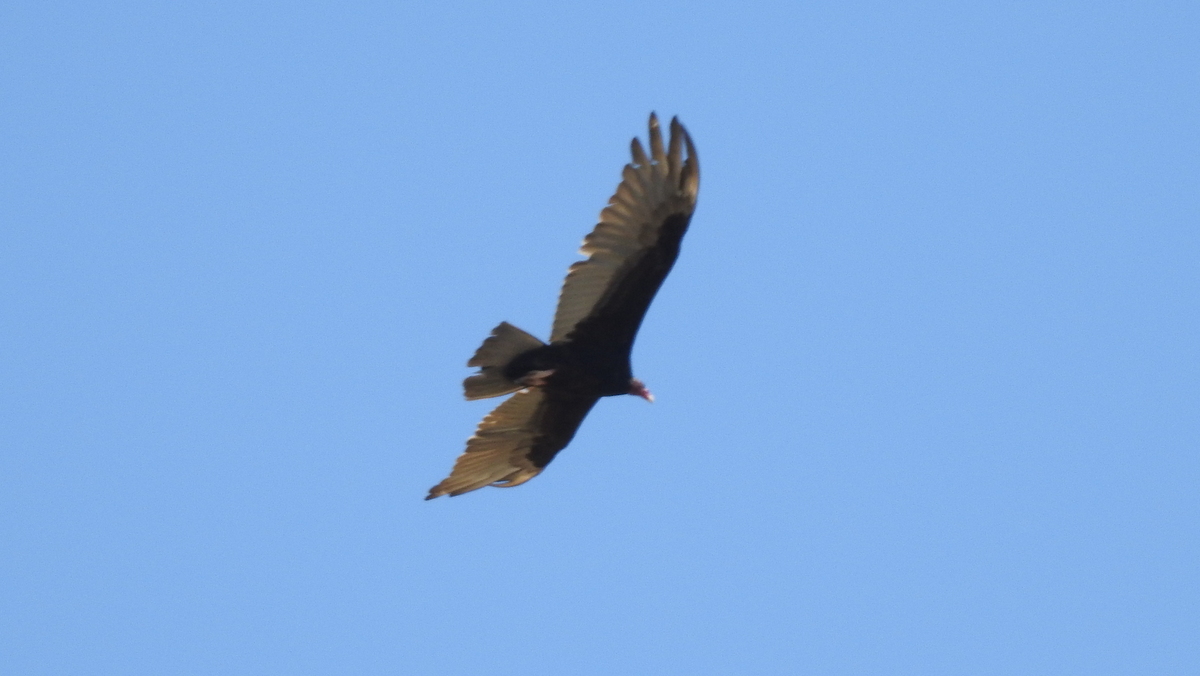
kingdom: Animalia
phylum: Chordata
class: Aves
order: Accipitriformes
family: Cathartidae
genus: Cathartes
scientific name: Cathartes aura
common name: Turkey vulture
